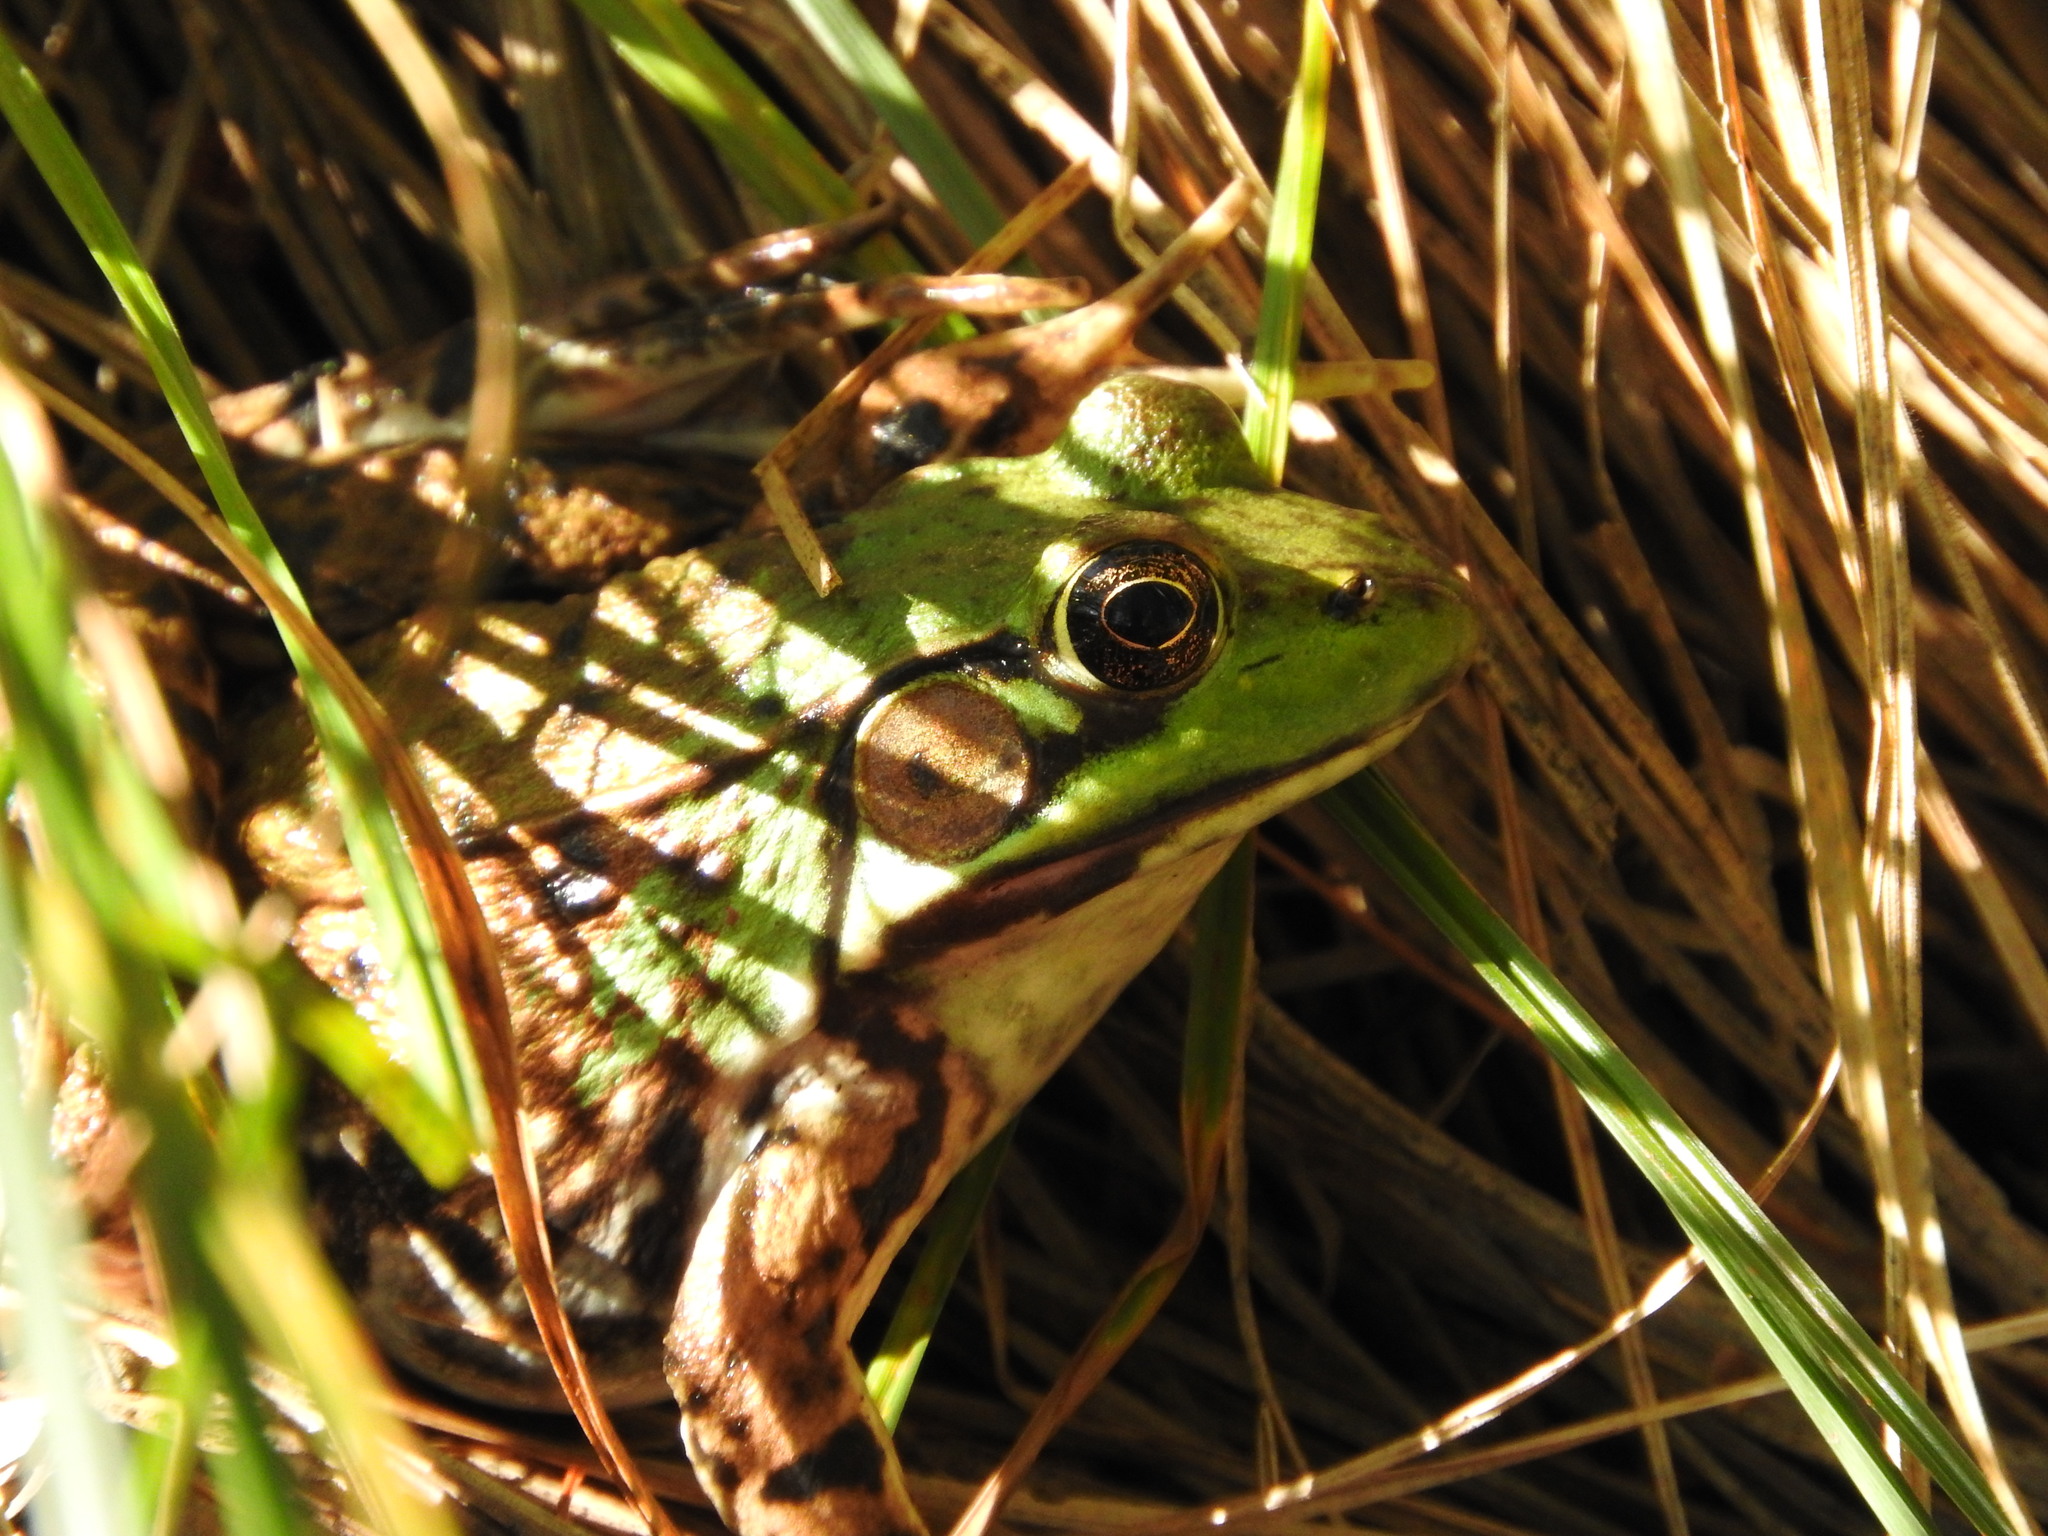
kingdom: Animalia
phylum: Chordata
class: Amphibia
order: Anura
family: Ranidae
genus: Lithobates
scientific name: Lithobates clamitans
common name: Green frog
